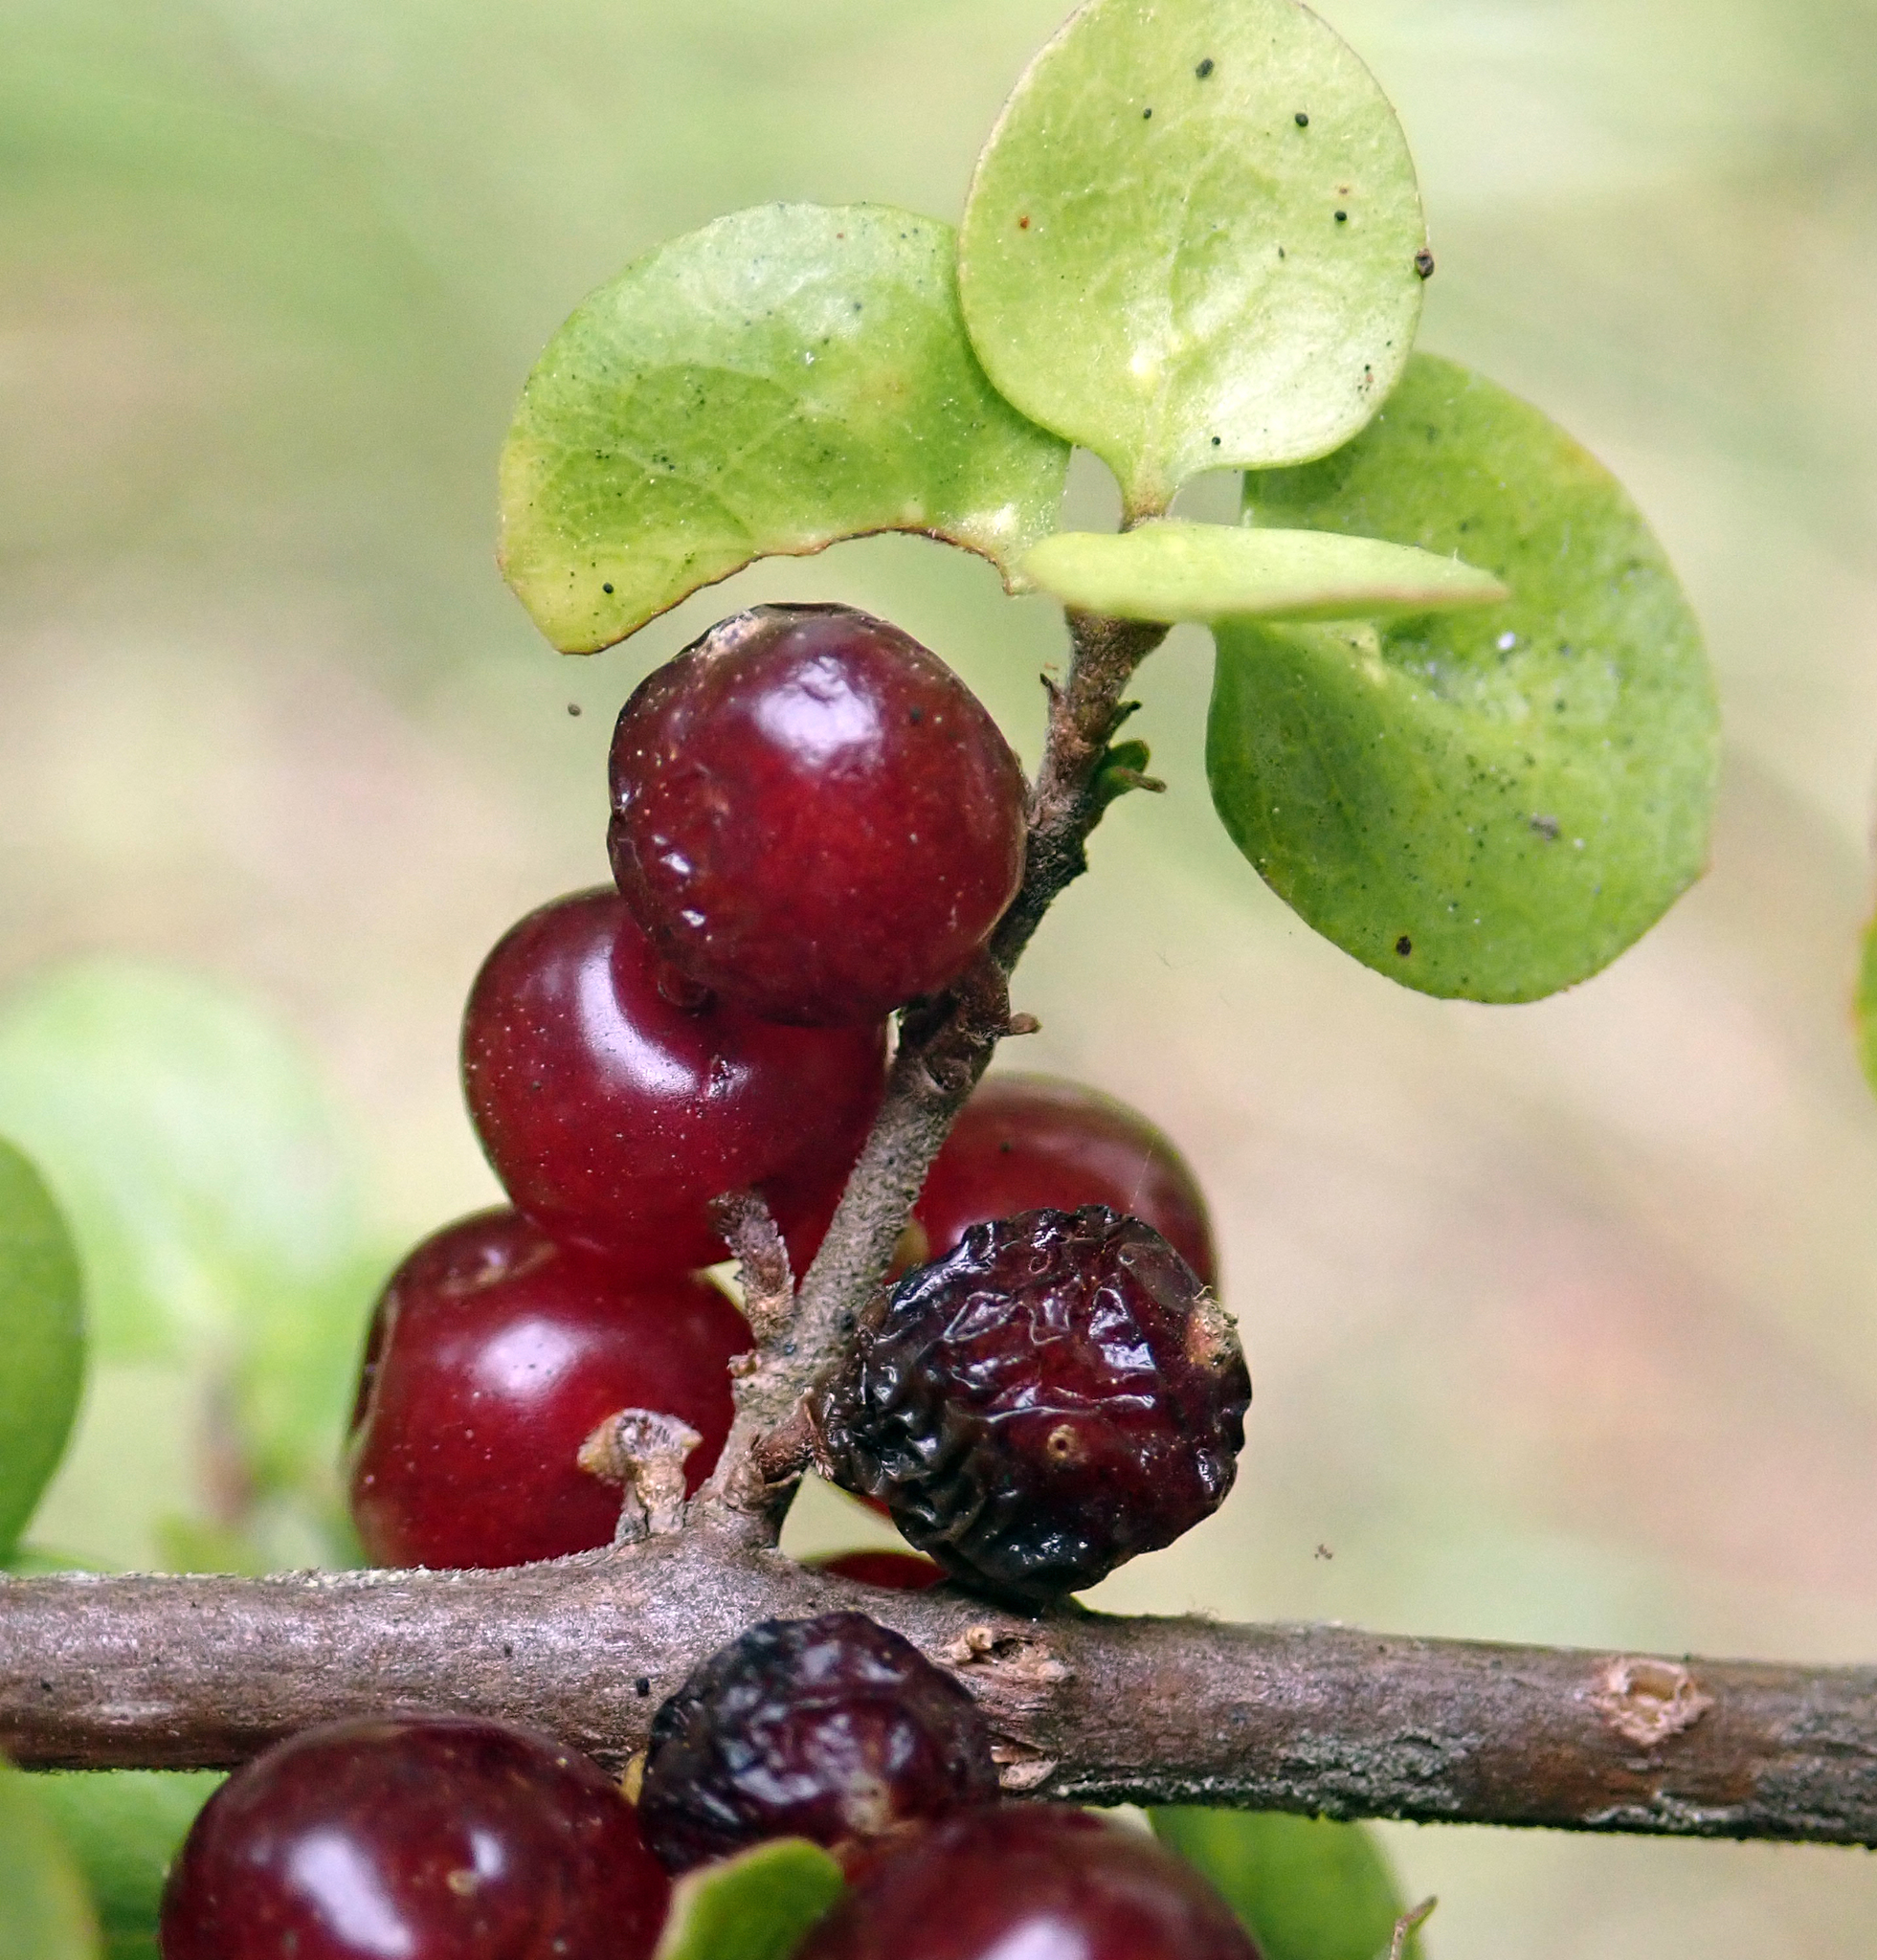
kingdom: Plantae
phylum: Tracheophyta
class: Magnoliopsida
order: Gentianales
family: Rubiaceae
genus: Coprosma
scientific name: Coprosma rhamnoides
